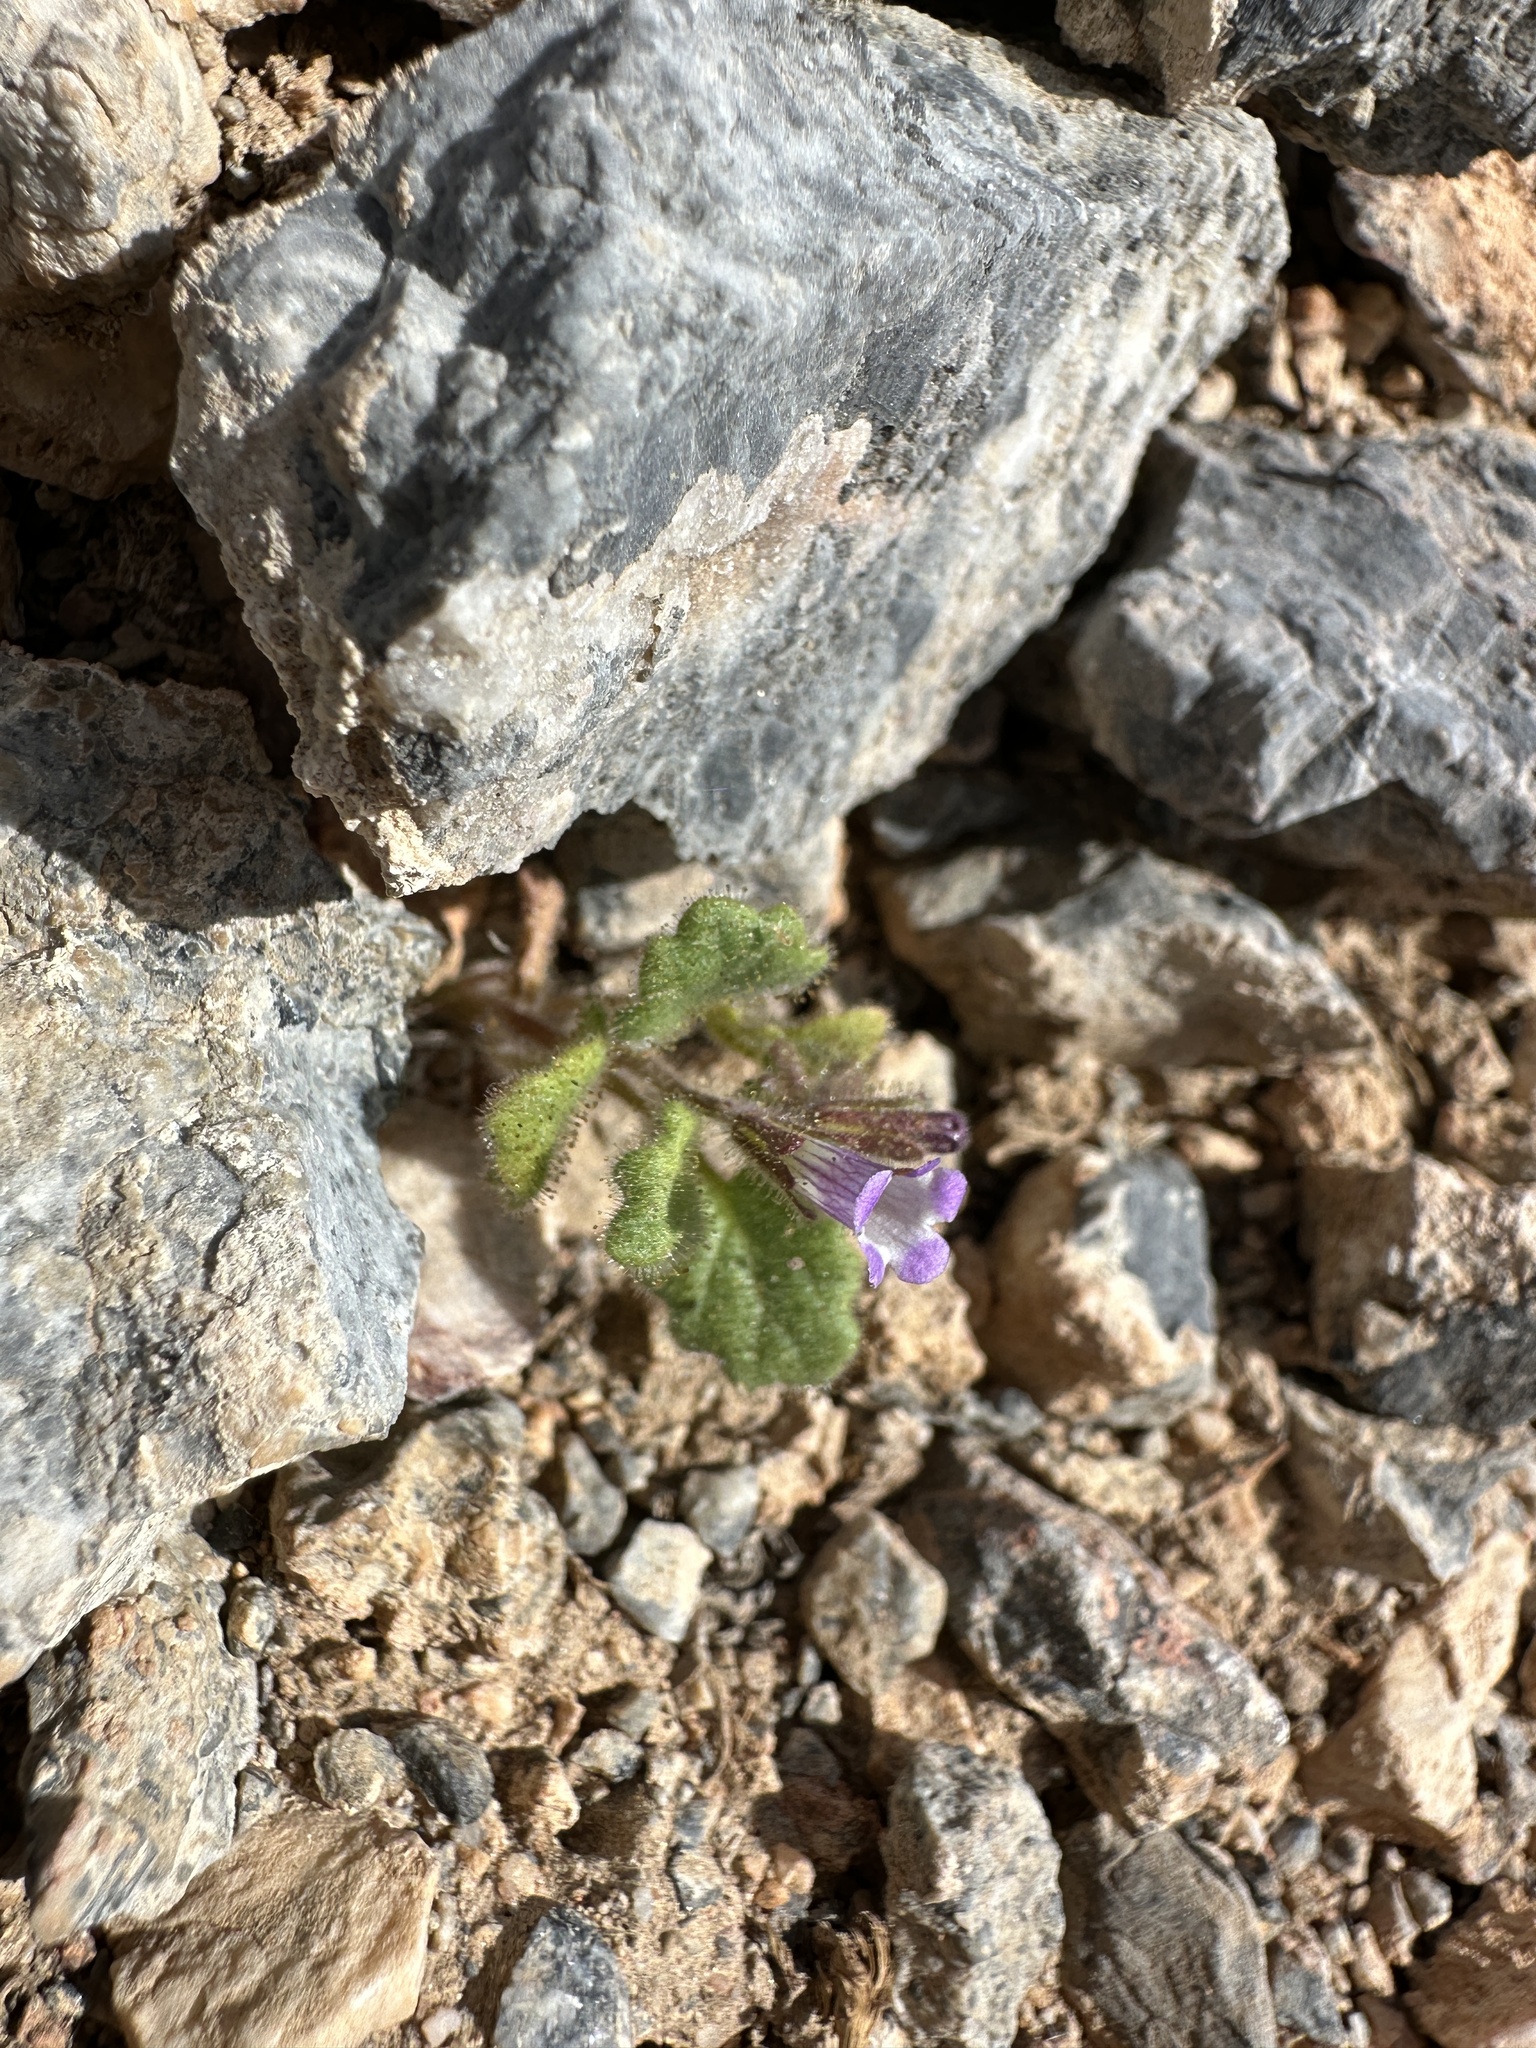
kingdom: Plantae
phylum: Tracheophyta
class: Magnoliopsida
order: Boraginales
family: Hydrophyllaceae
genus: Phacelia
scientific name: Phacelia mustelina
